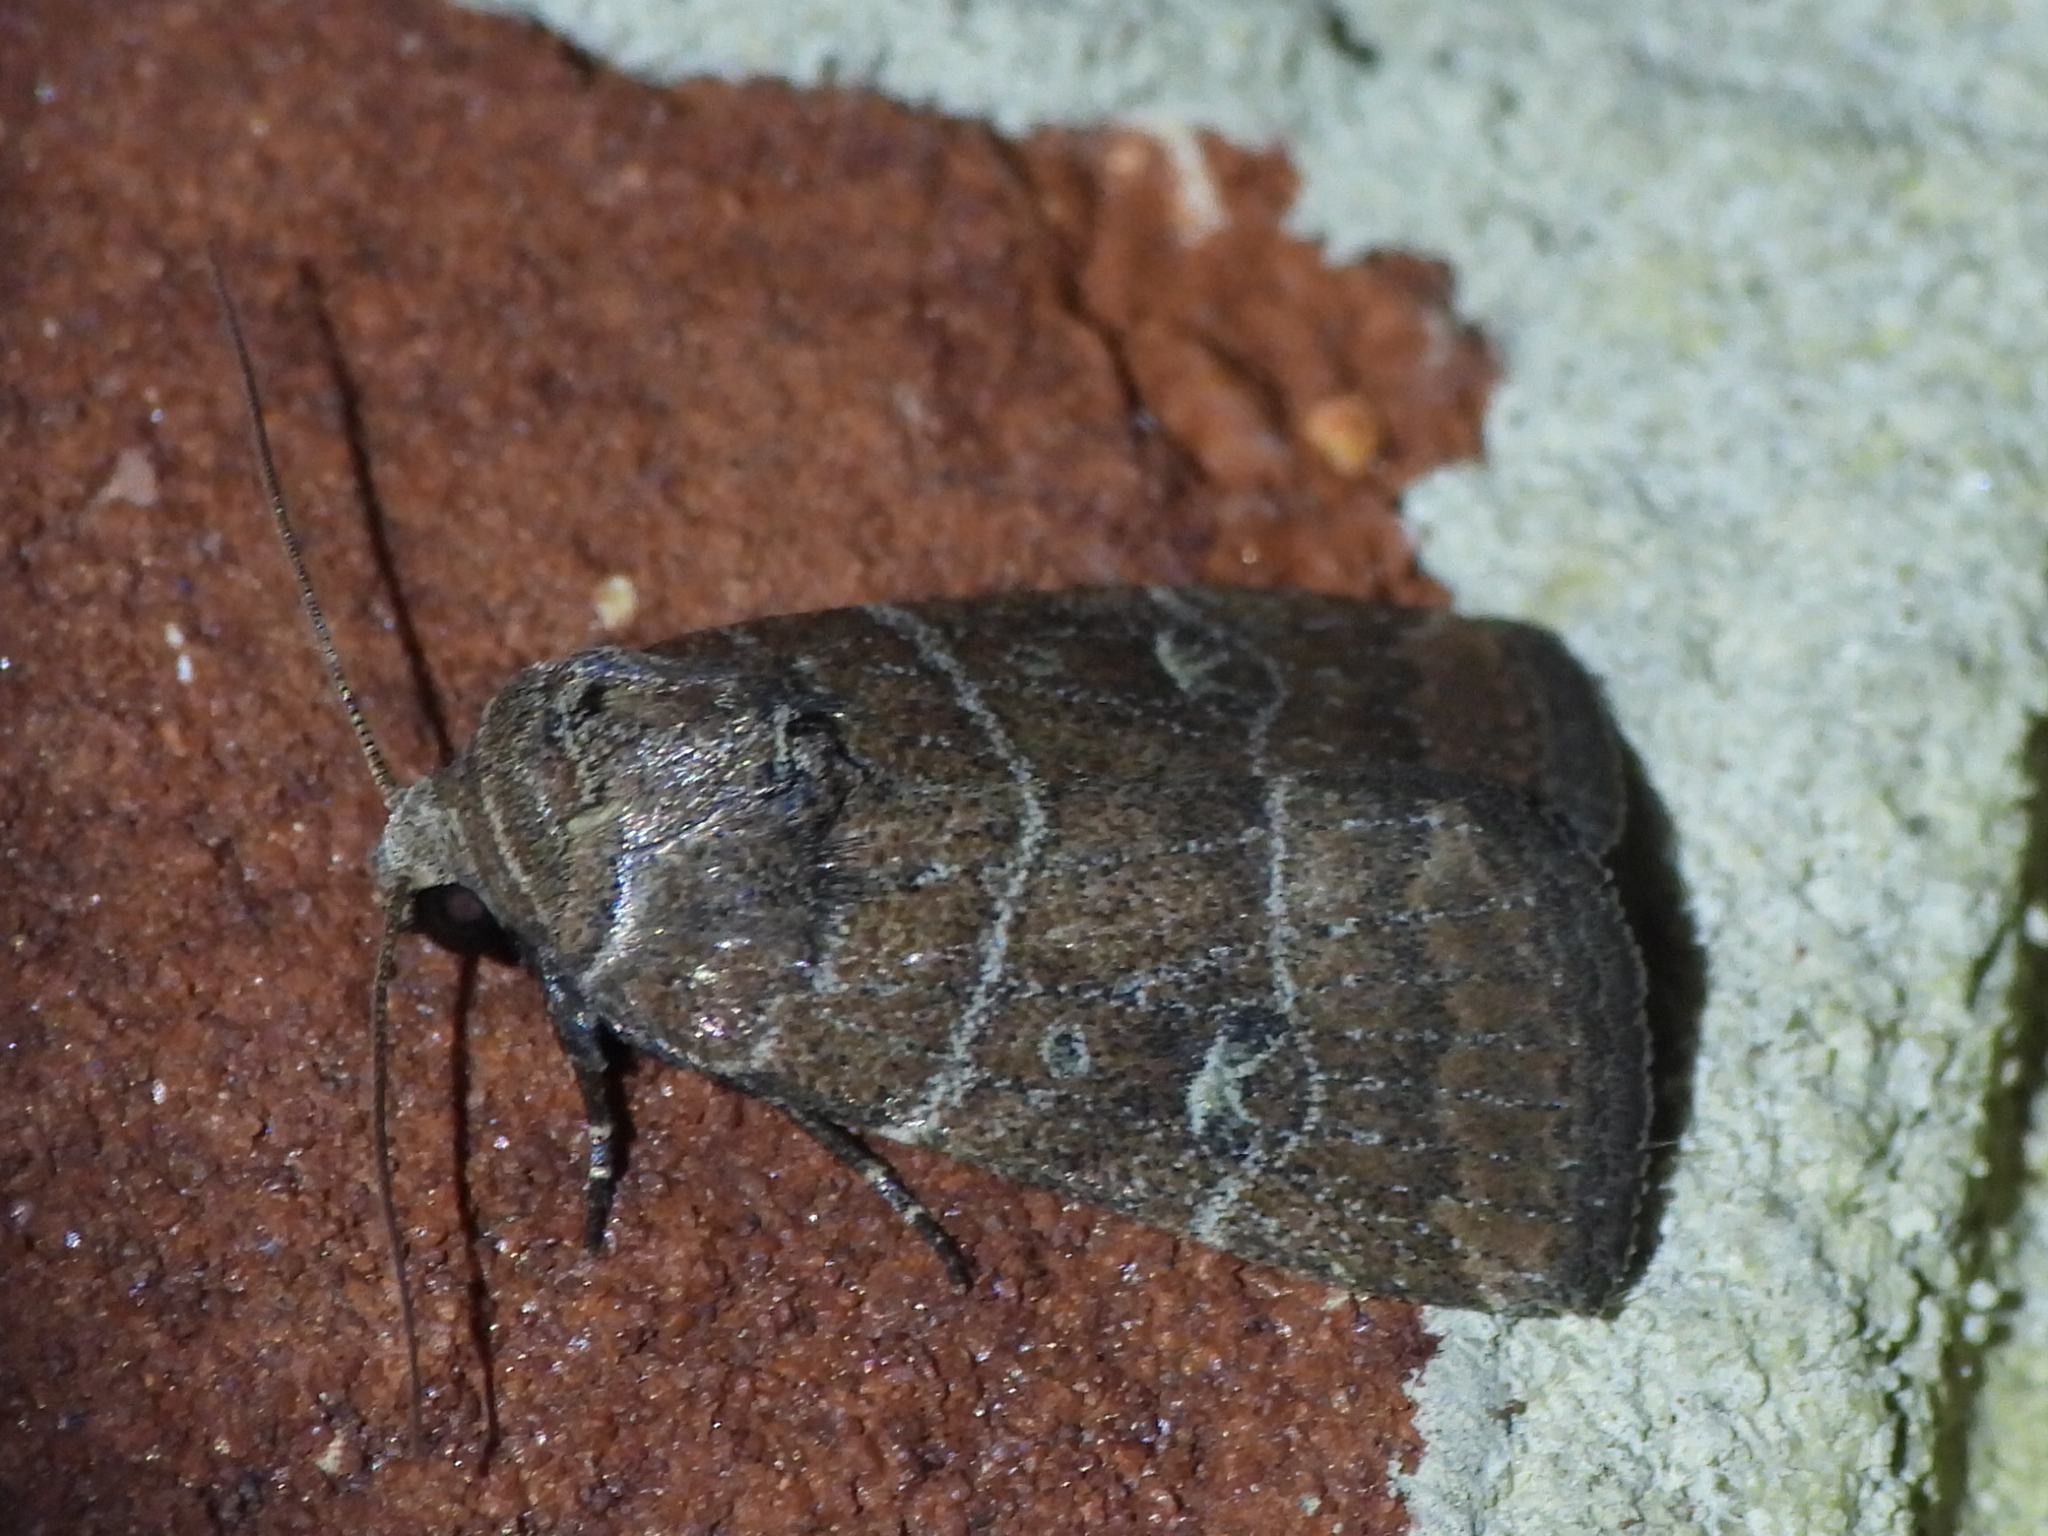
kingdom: Animalia
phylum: Arthropoda
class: Insecta
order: Lepidoptera
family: Noctuidae
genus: Elaphria
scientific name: Elaphria grata
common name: Grateful midget moth
